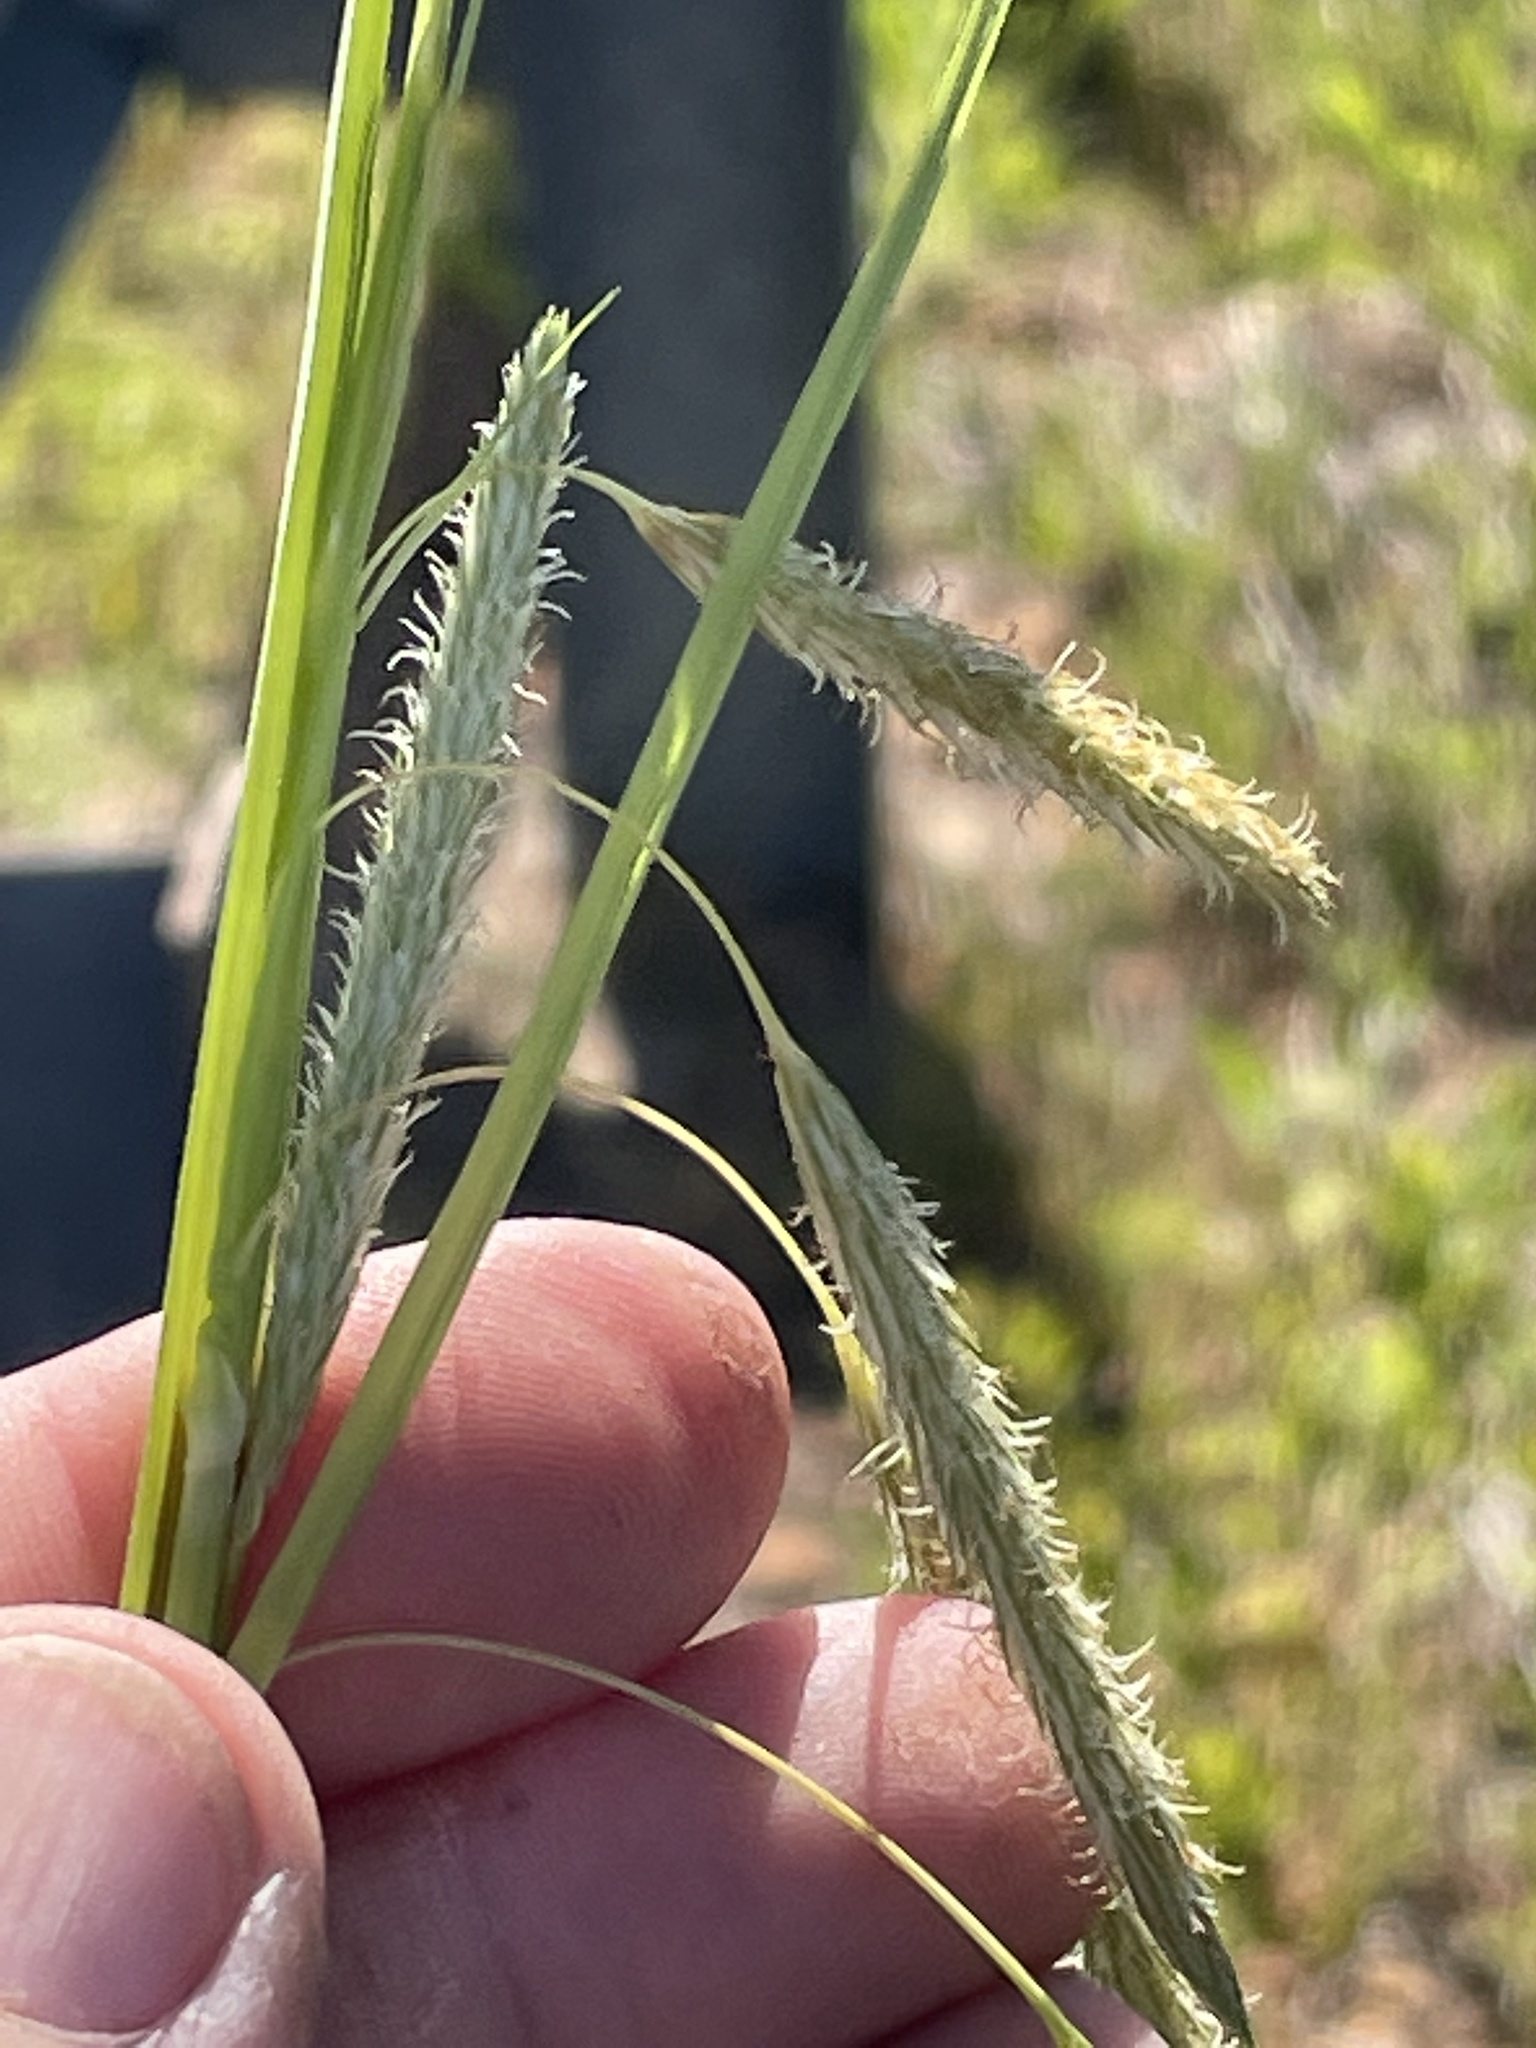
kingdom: Plantae
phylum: Tracheophyta
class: Liliopsida
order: Poales
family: Cyperaceae
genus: Carex
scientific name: Carex glaucescens
